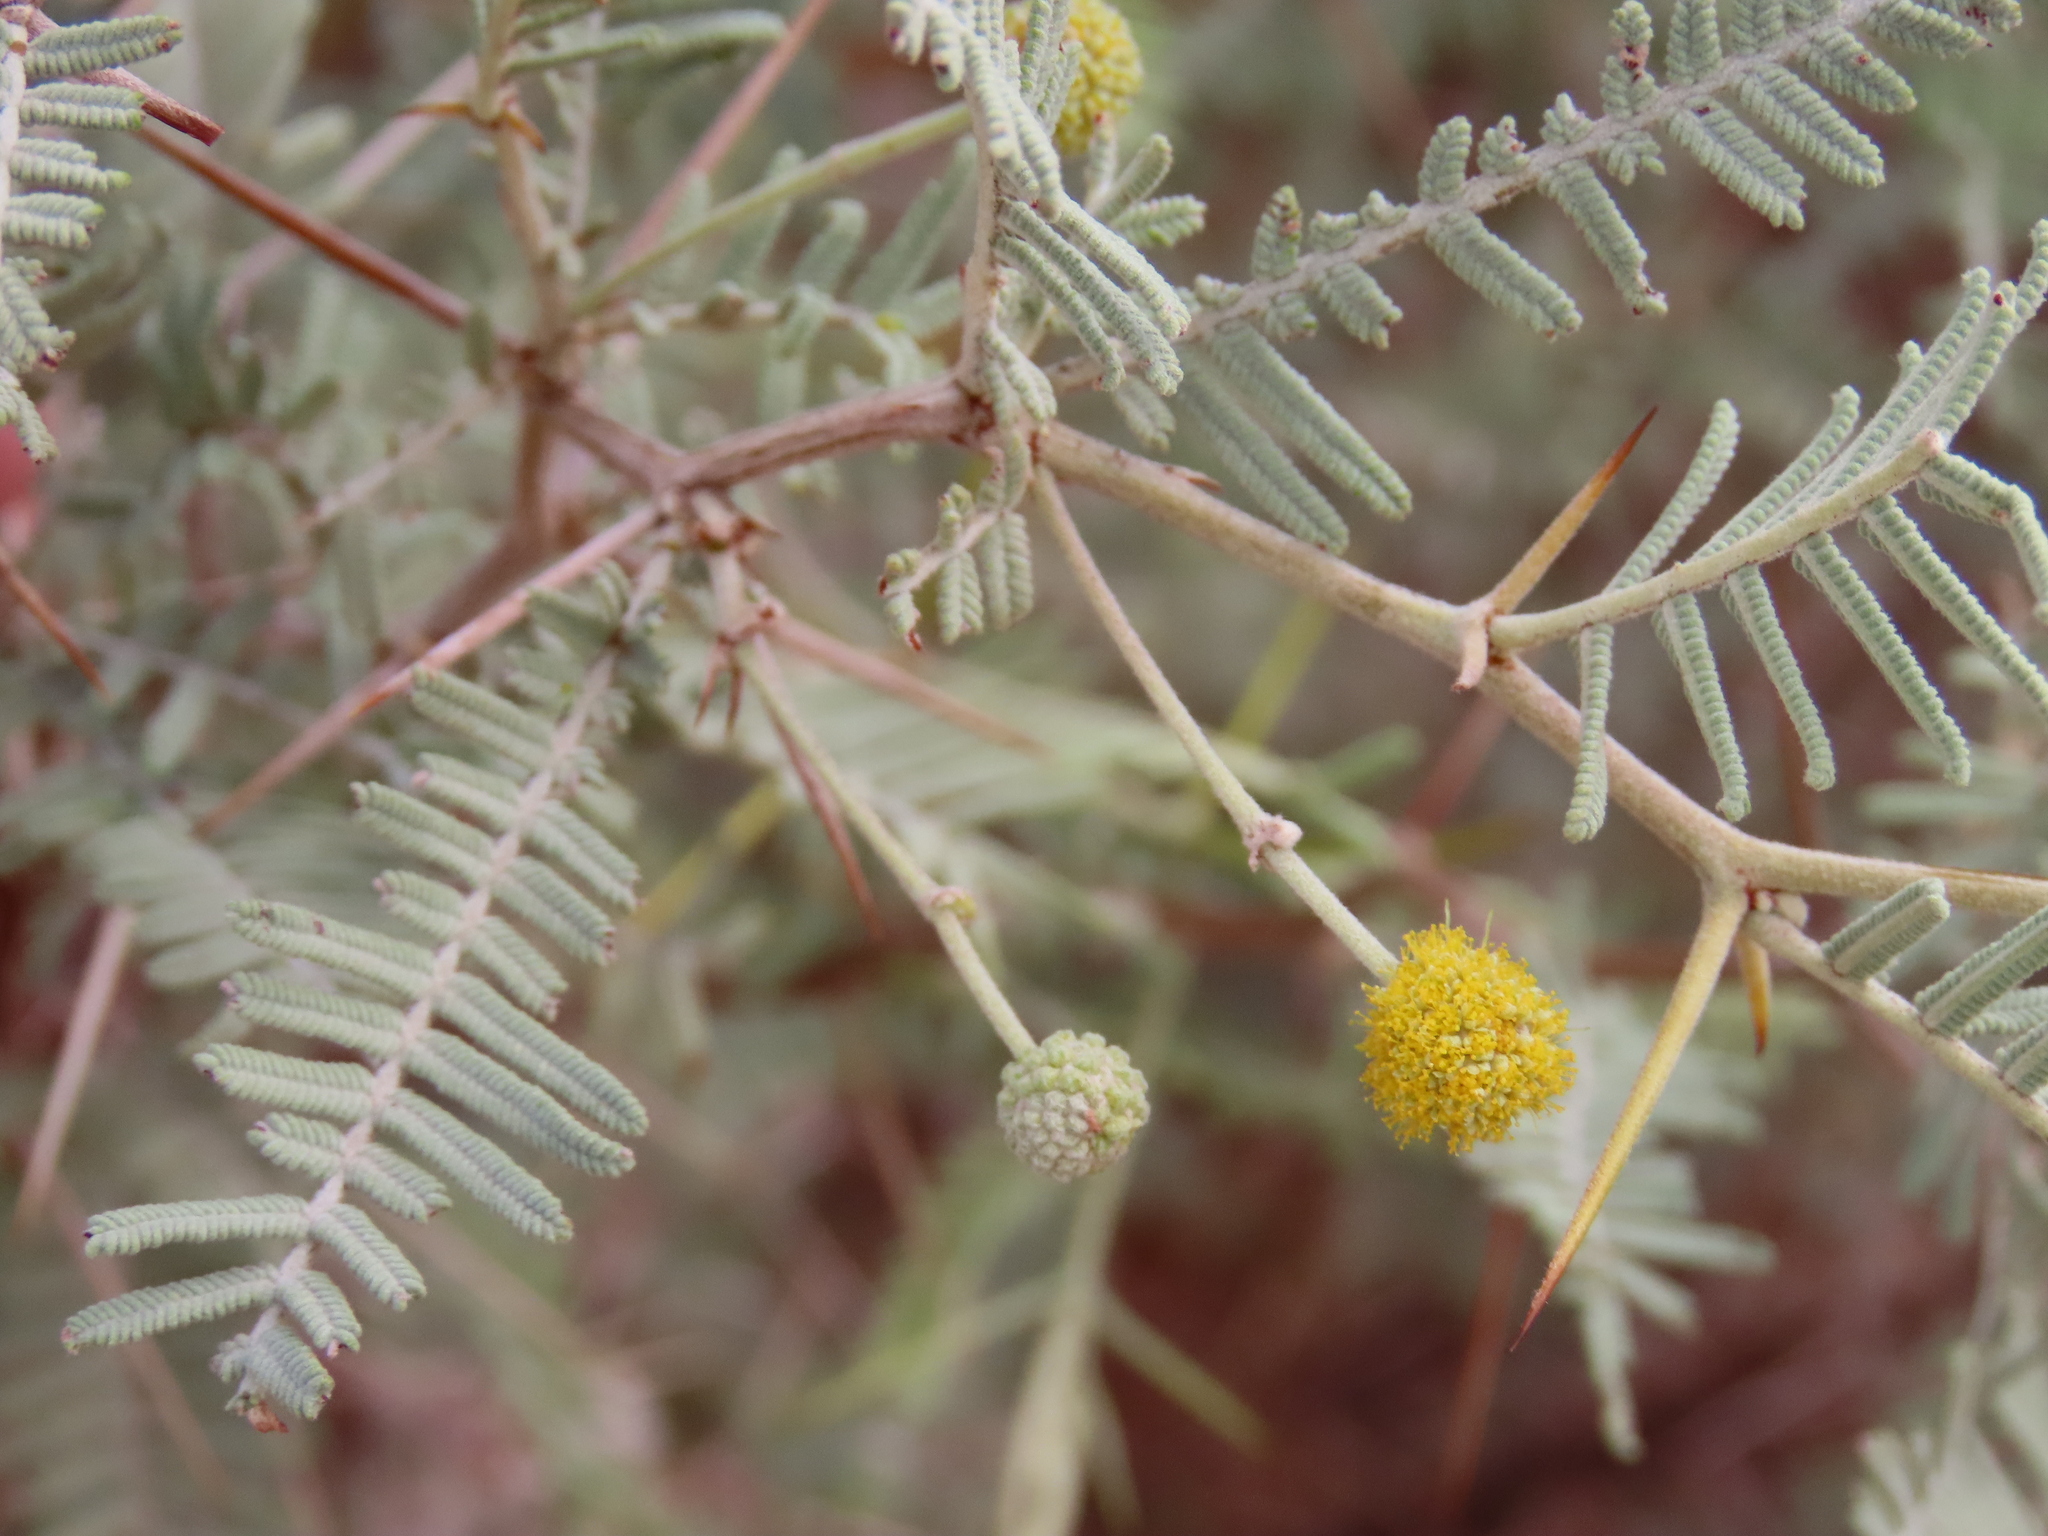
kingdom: Plantae
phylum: Tracheophyta
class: Magnoliopsida
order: Fabales
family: Fabaceae
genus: Vachellia
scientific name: Vachellia haematoxylon
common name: Grey camel thorn
